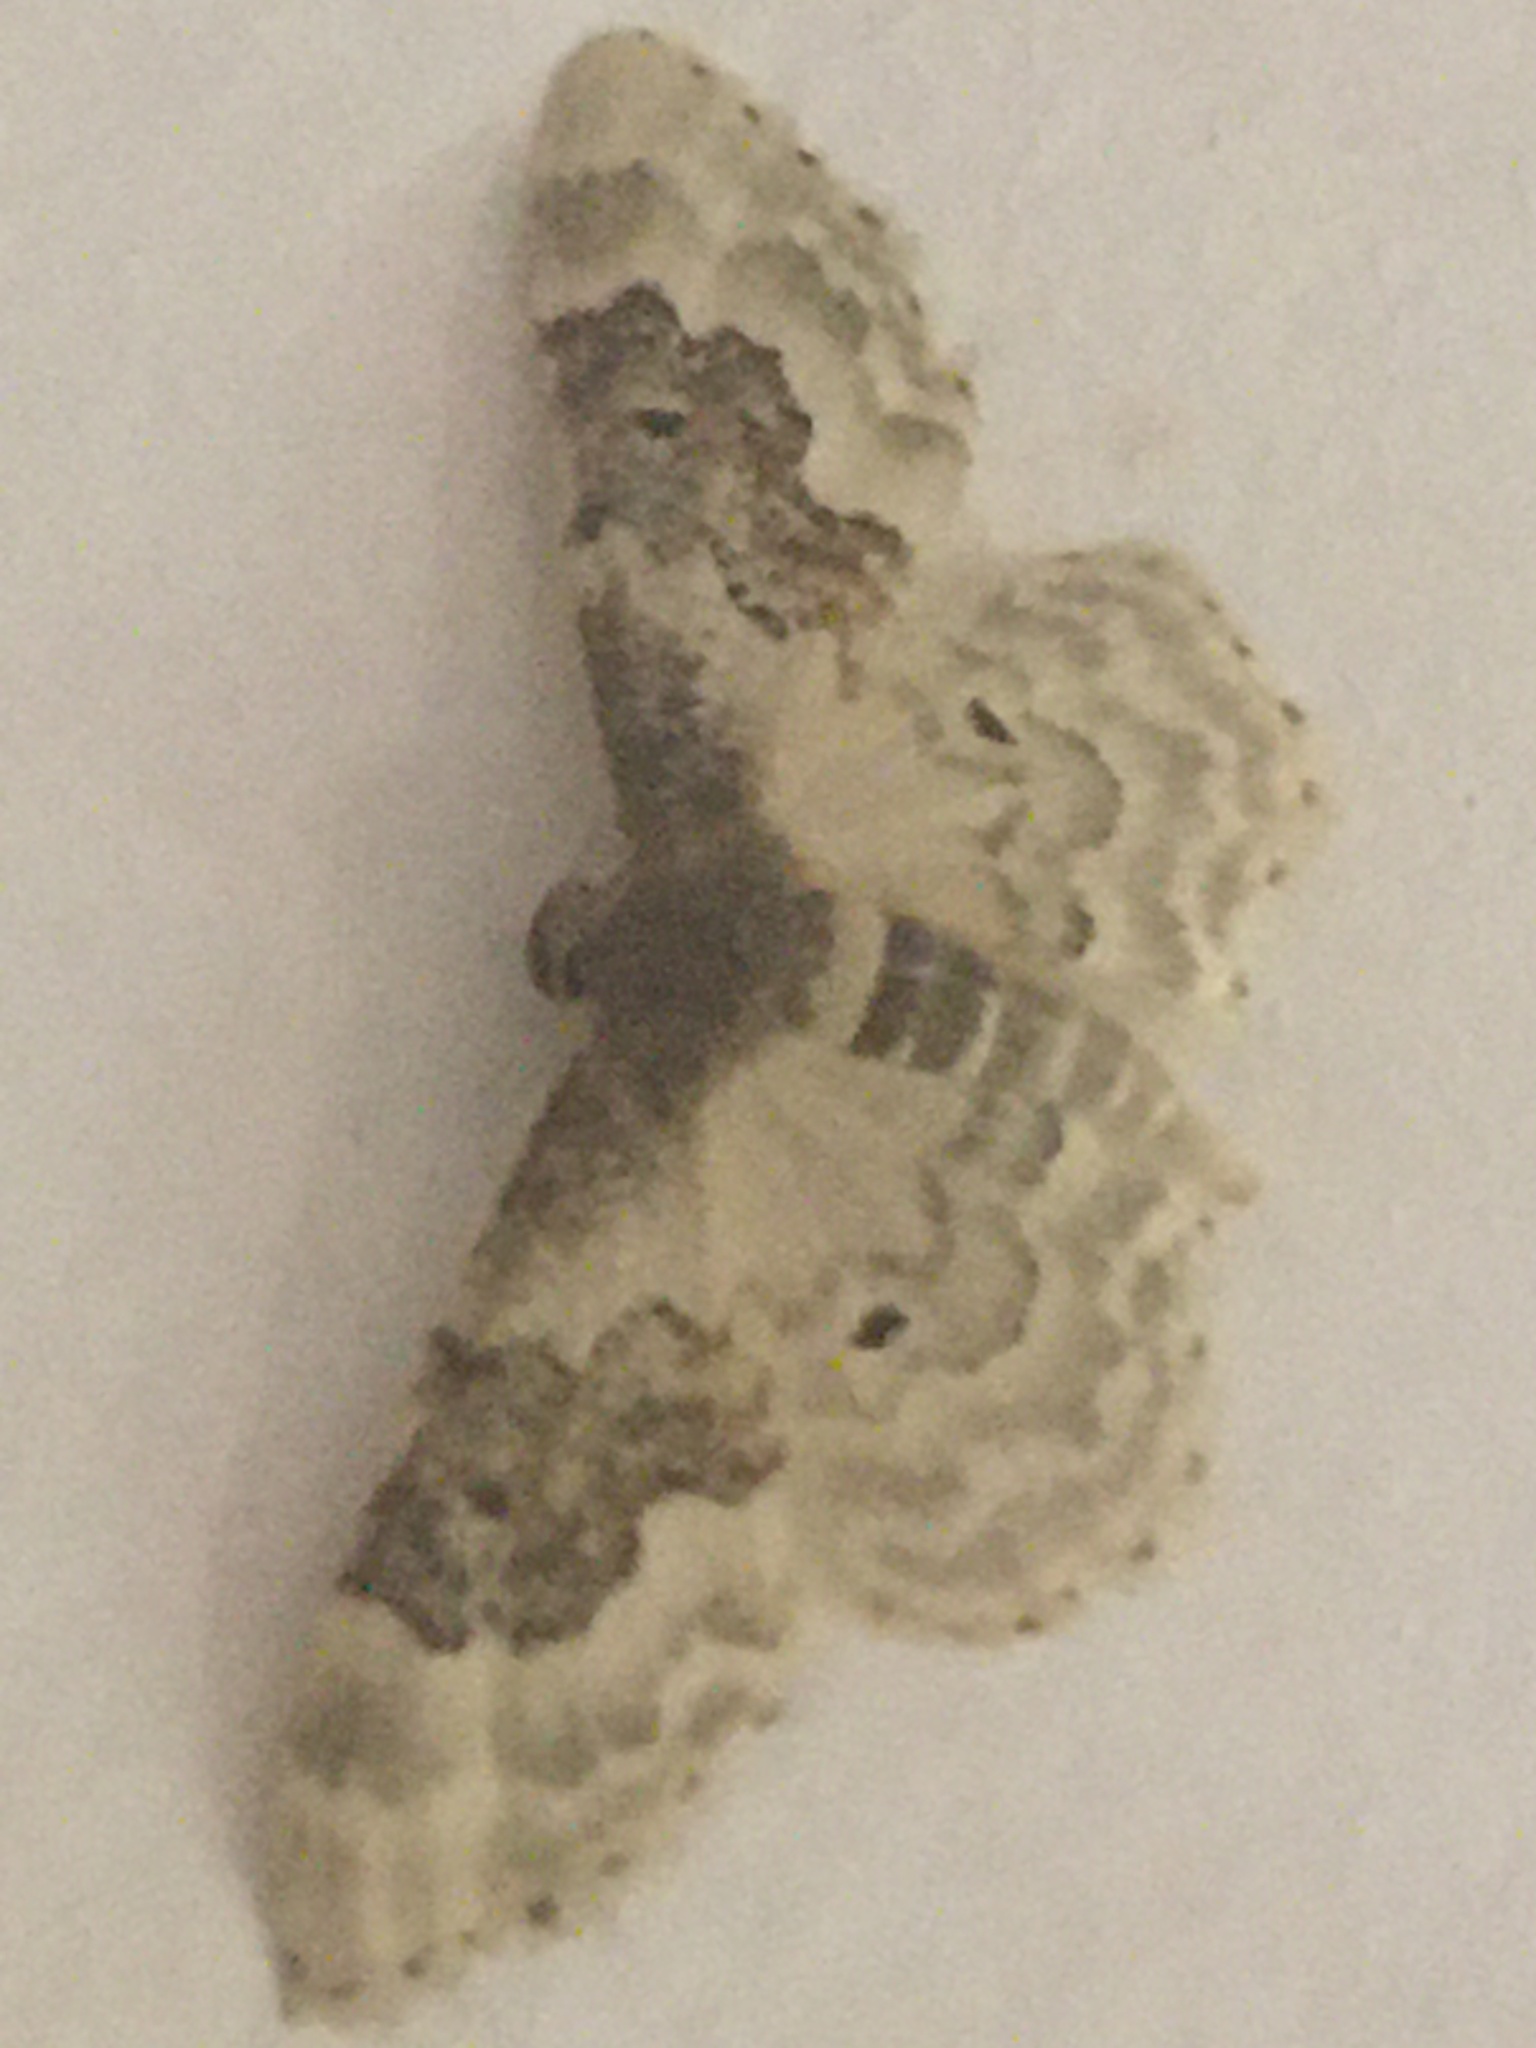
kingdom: Animalia
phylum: Arthropoda
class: Insecta
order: Lepidoptera
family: Geometridae
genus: Idaea
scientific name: Idaea rusticata
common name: Least carpet
